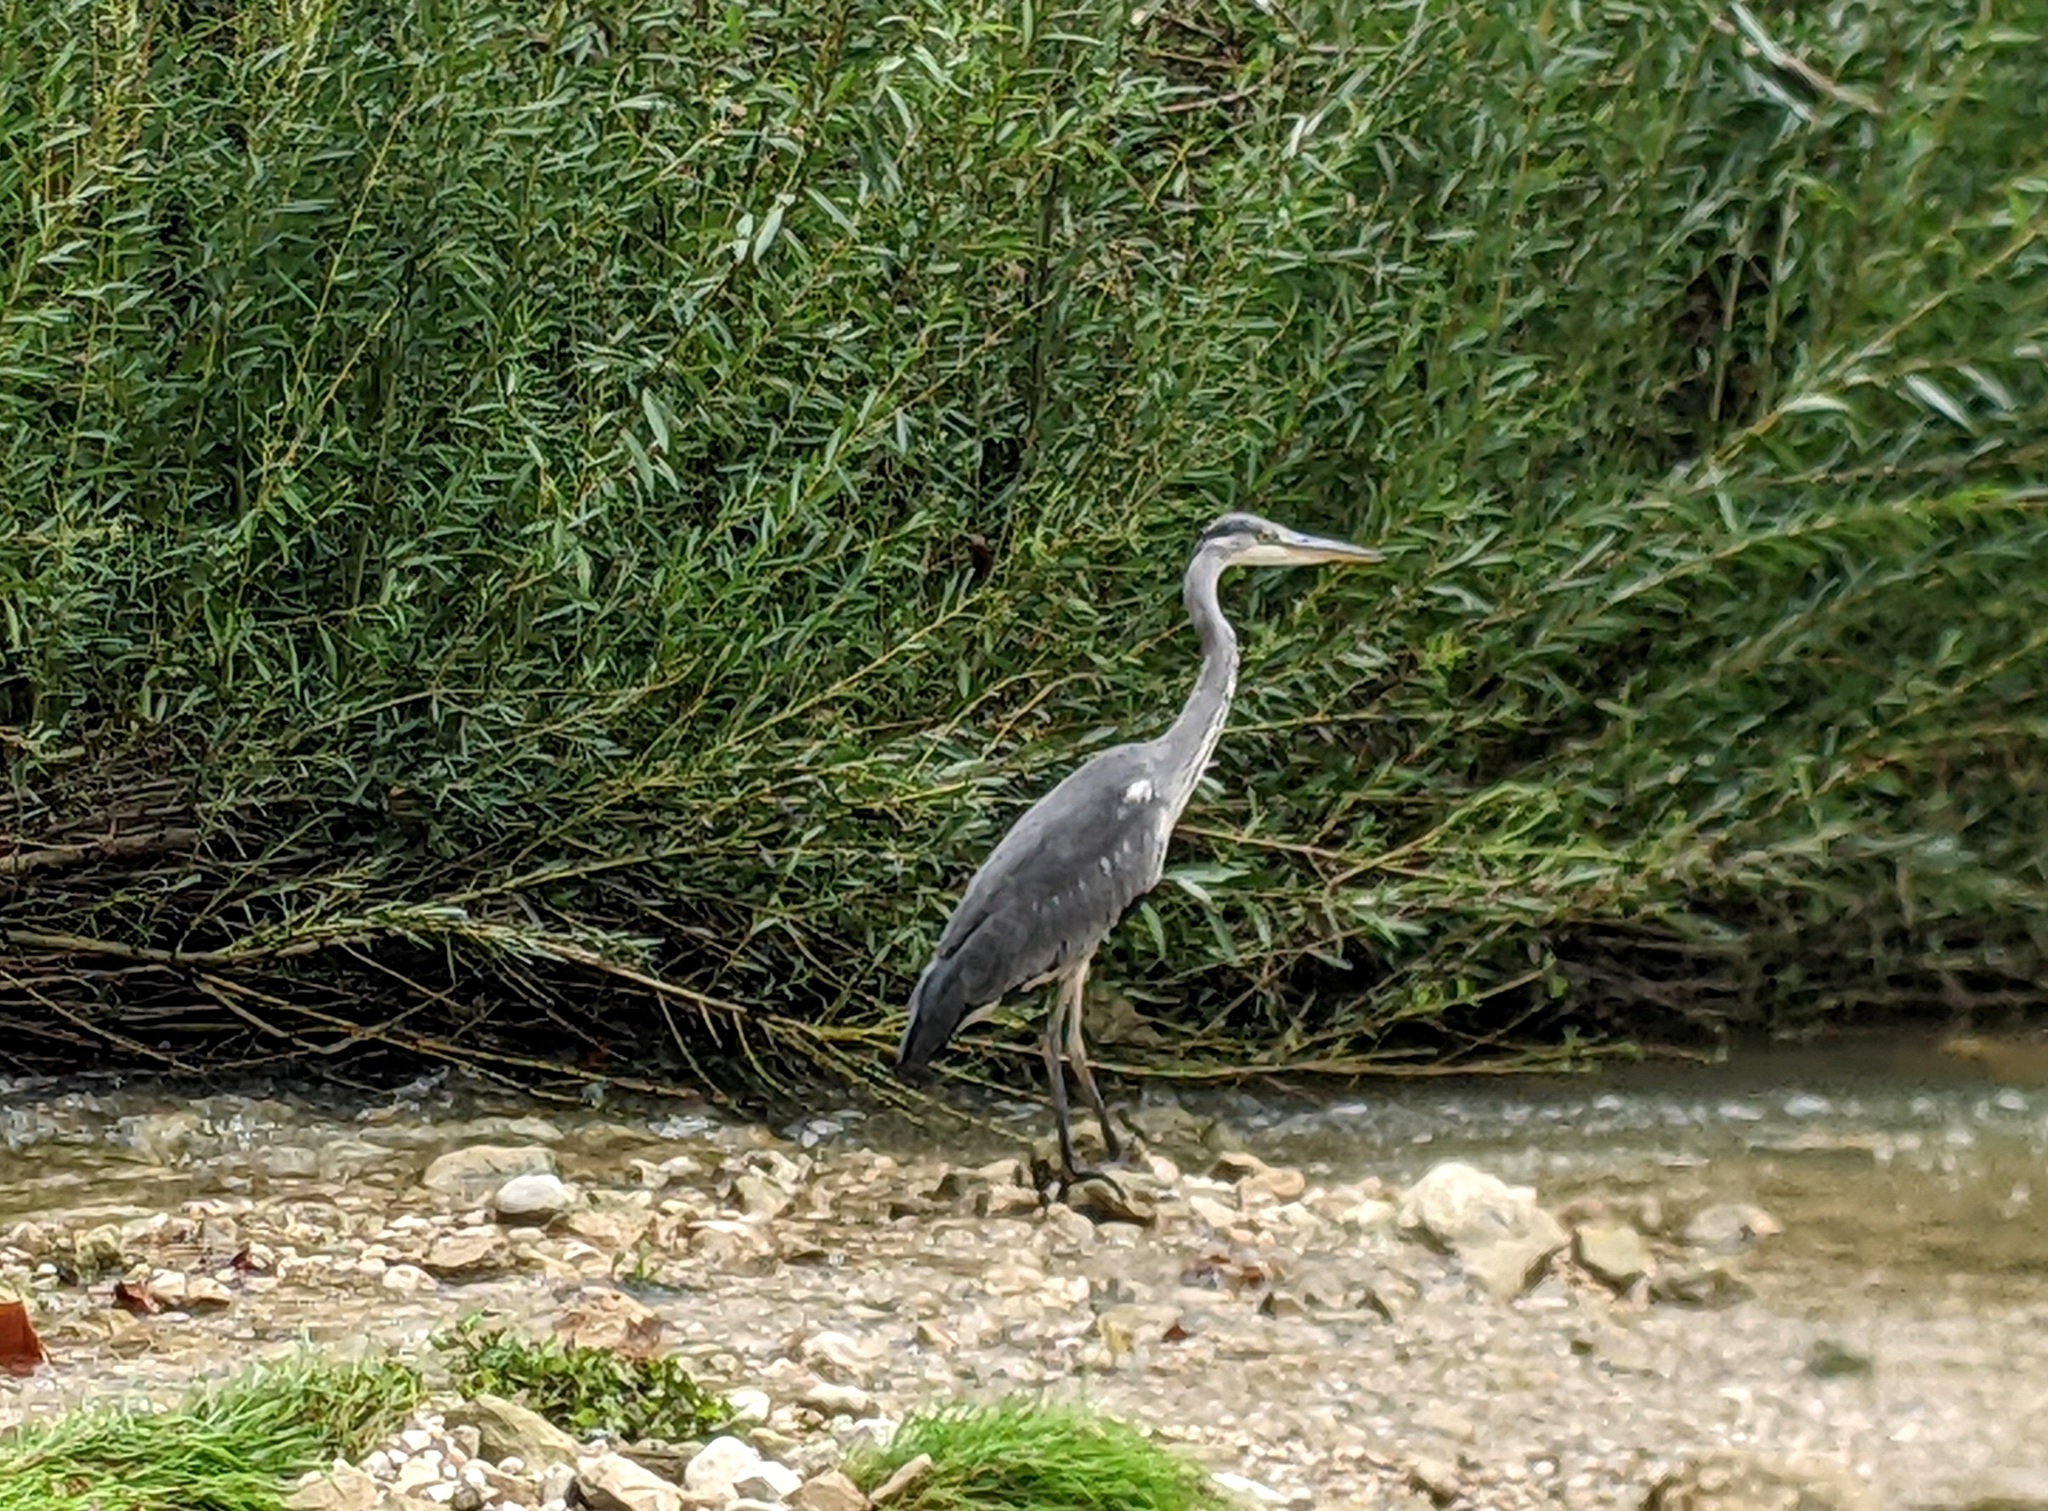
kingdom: Animalia
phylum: Chordata
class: Aves
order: Pelecaniformes
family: Ardeidae
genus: Ardea
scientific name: Ardea cinerea
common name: Grey heron
